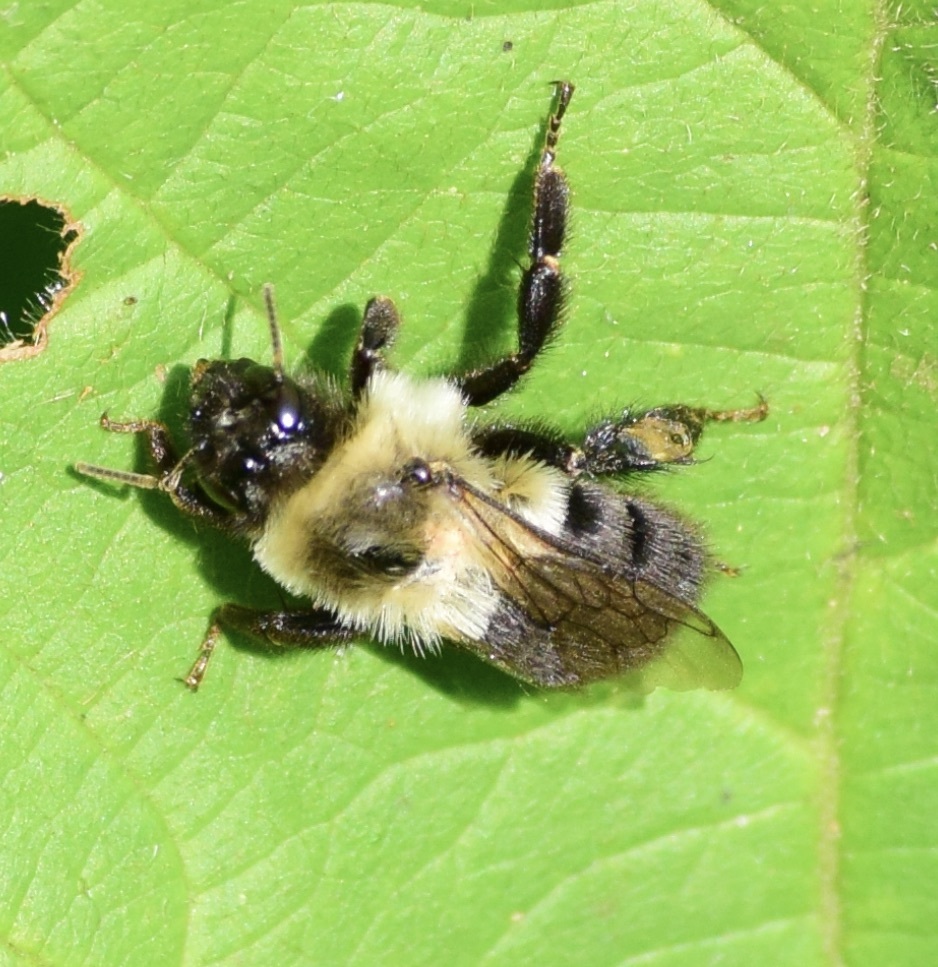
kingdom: Animalia
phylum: Arthropoda
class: Insecta
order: Hymenoptera
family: Apidae
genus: Bombus
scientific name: Bombus impatiens
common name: Common eastern bumble bee
